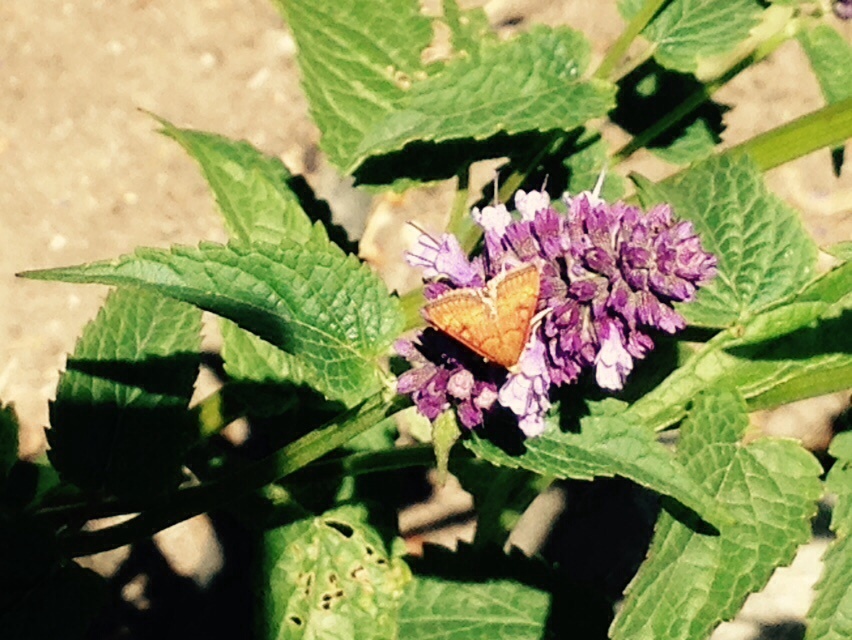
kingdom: Animalia
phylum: Arthropoda
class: Insecta
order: Lepidoptera
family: Crambidae
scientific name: Crambidae
